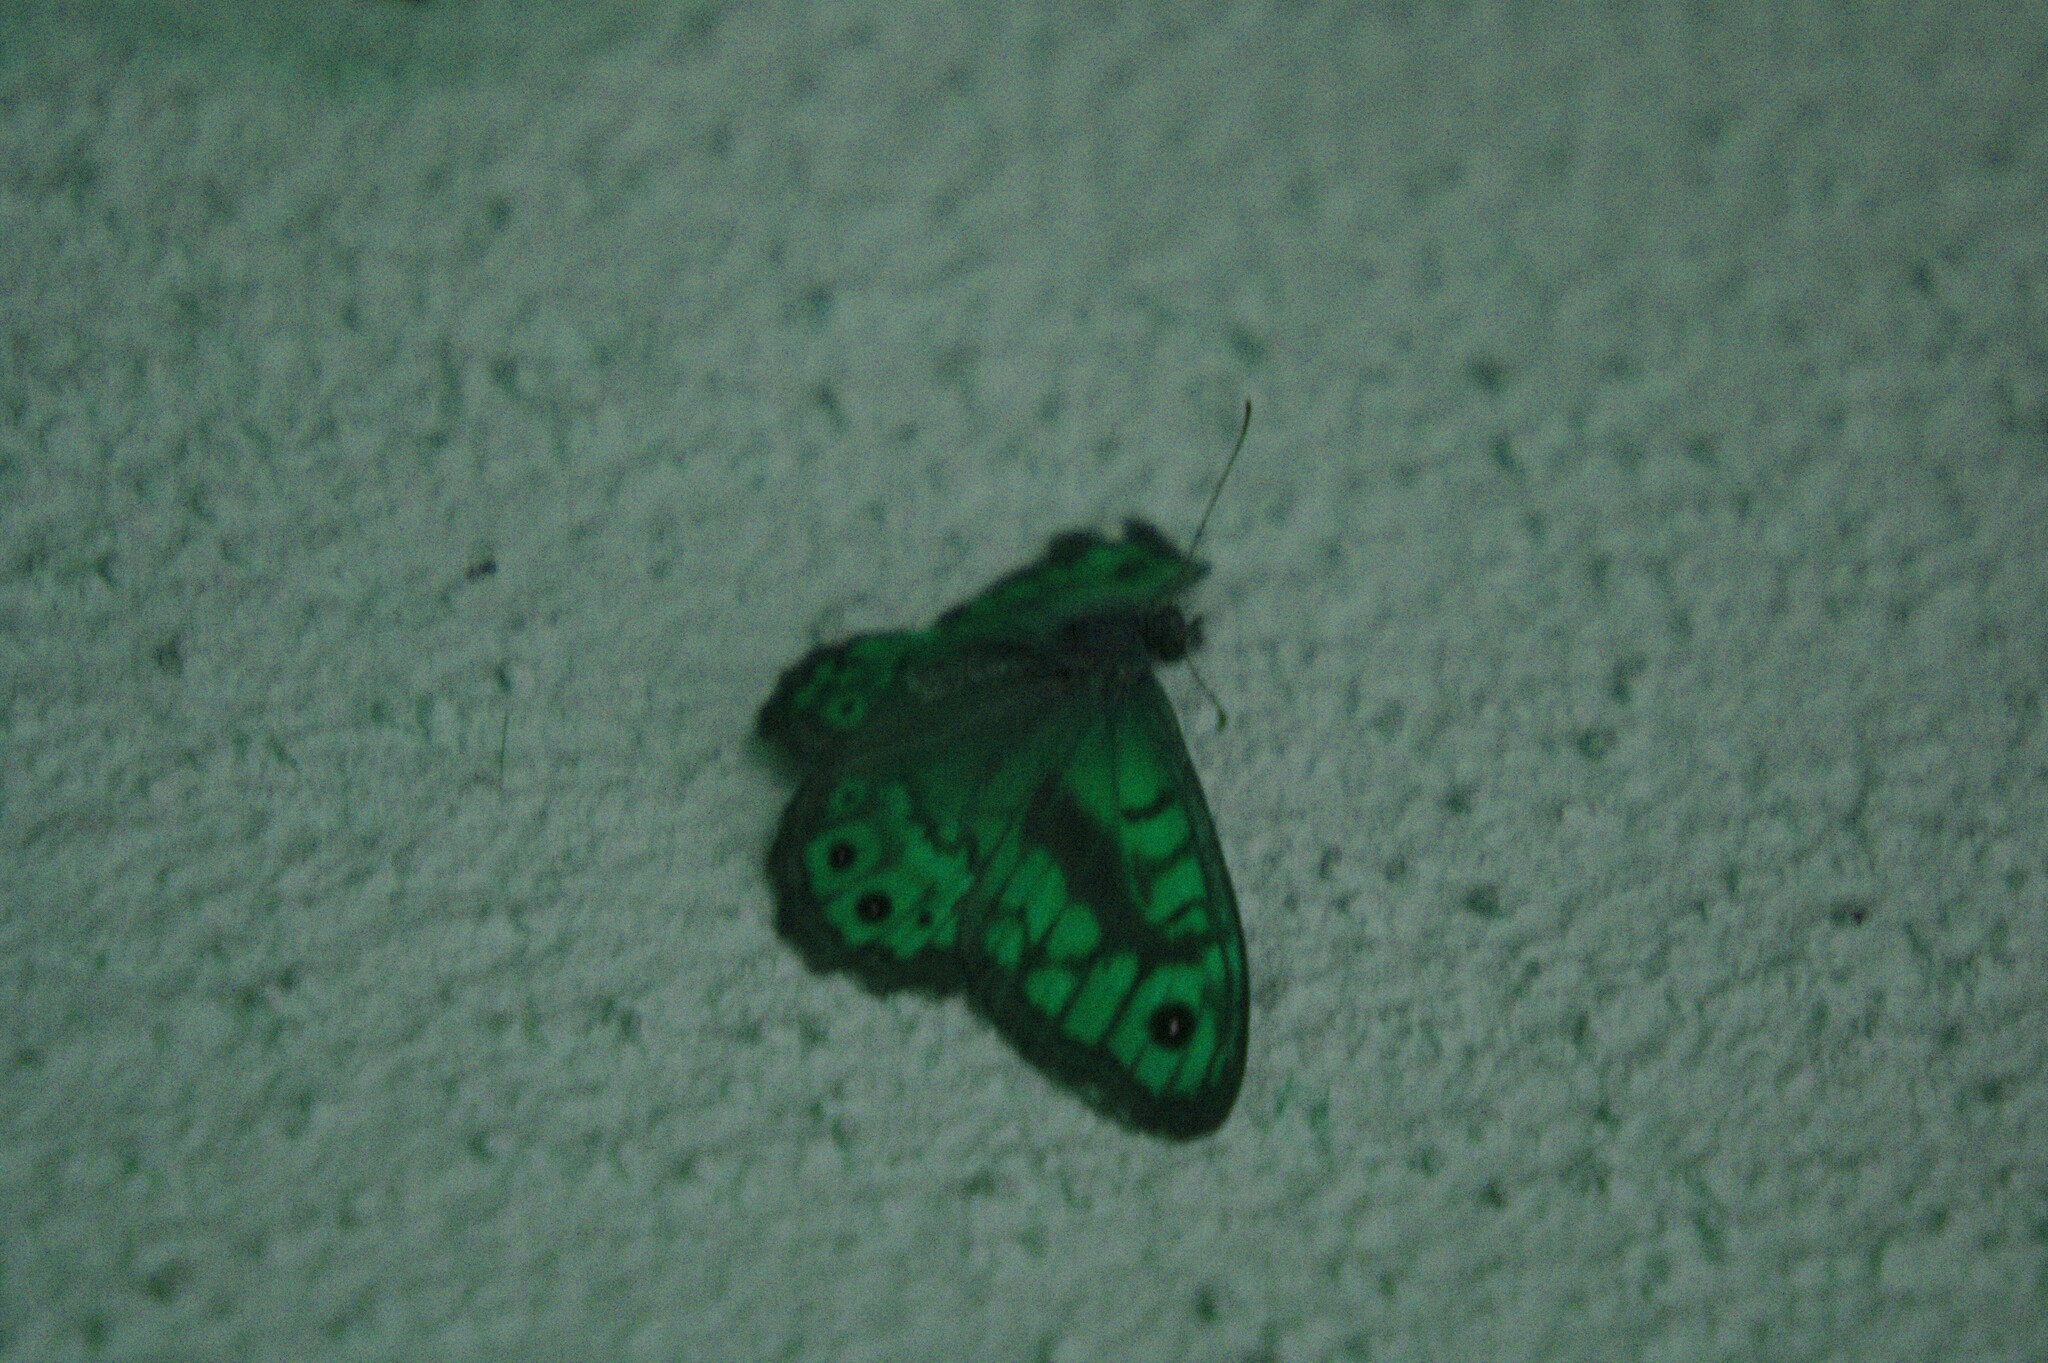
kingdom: Animalia
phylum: Arthropoda
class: Insecta
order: Lepidoptera
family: Nymphalidae
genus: Pararge
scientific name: Pararge Lasiommata megera
